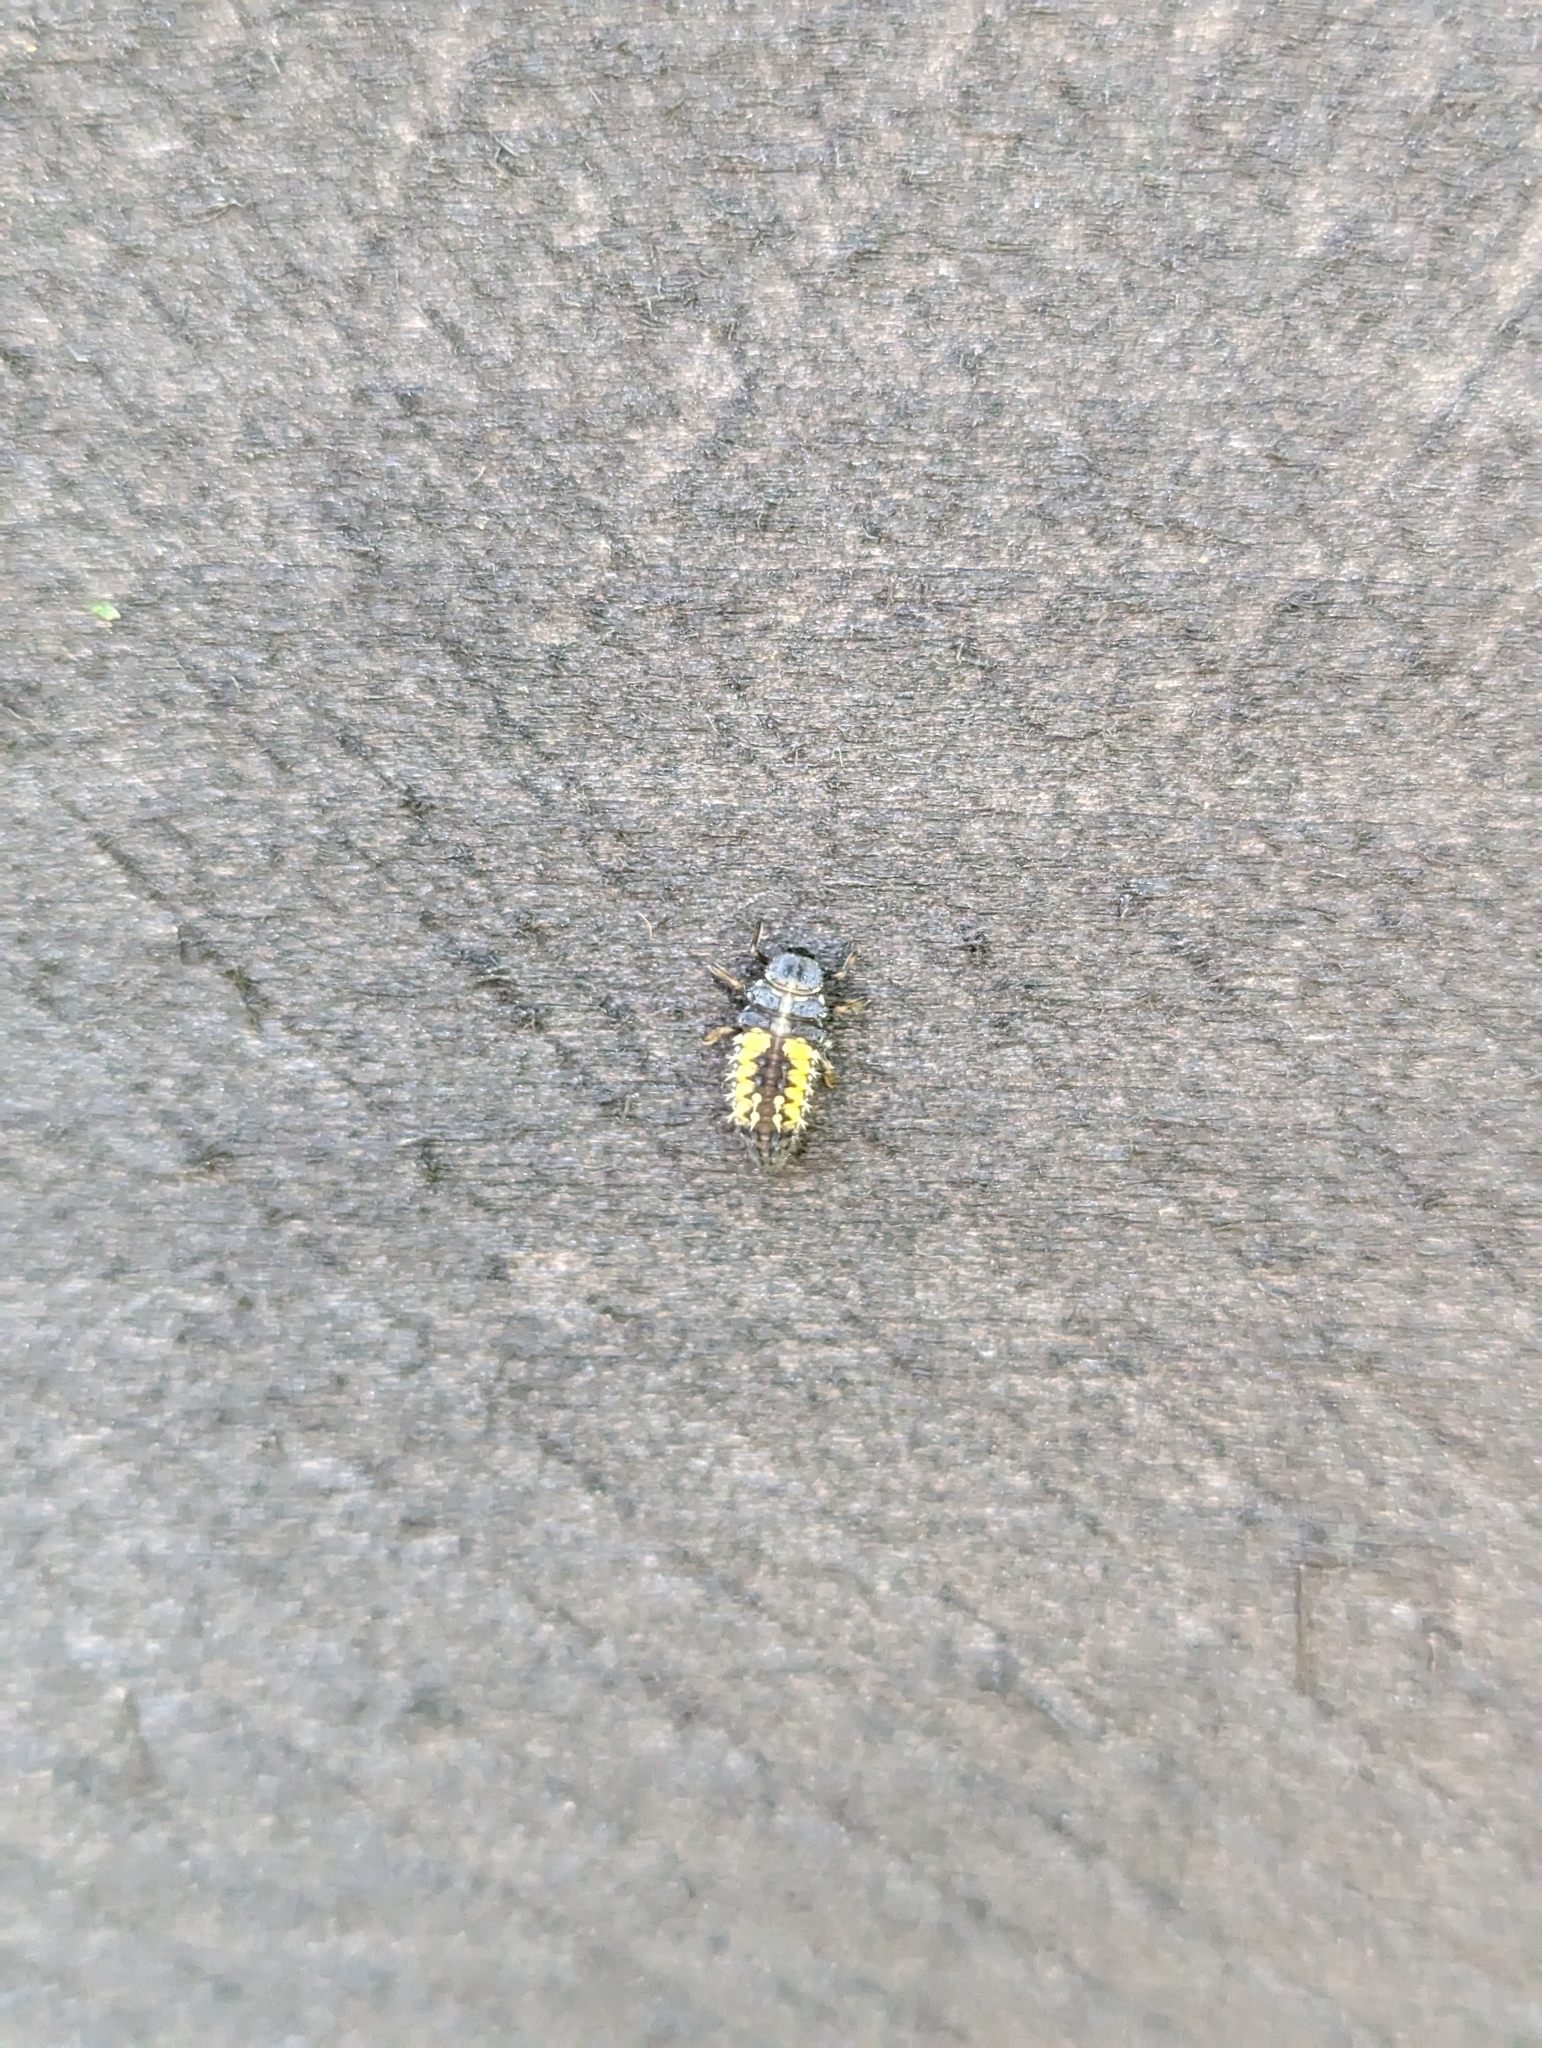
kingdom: Animalia
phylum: Arthropoda
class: Insecta
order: Coleoptera
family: Coccinellidae
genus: Harmonia
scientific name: Harmonia axyridis
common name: Harlequin ladybird
